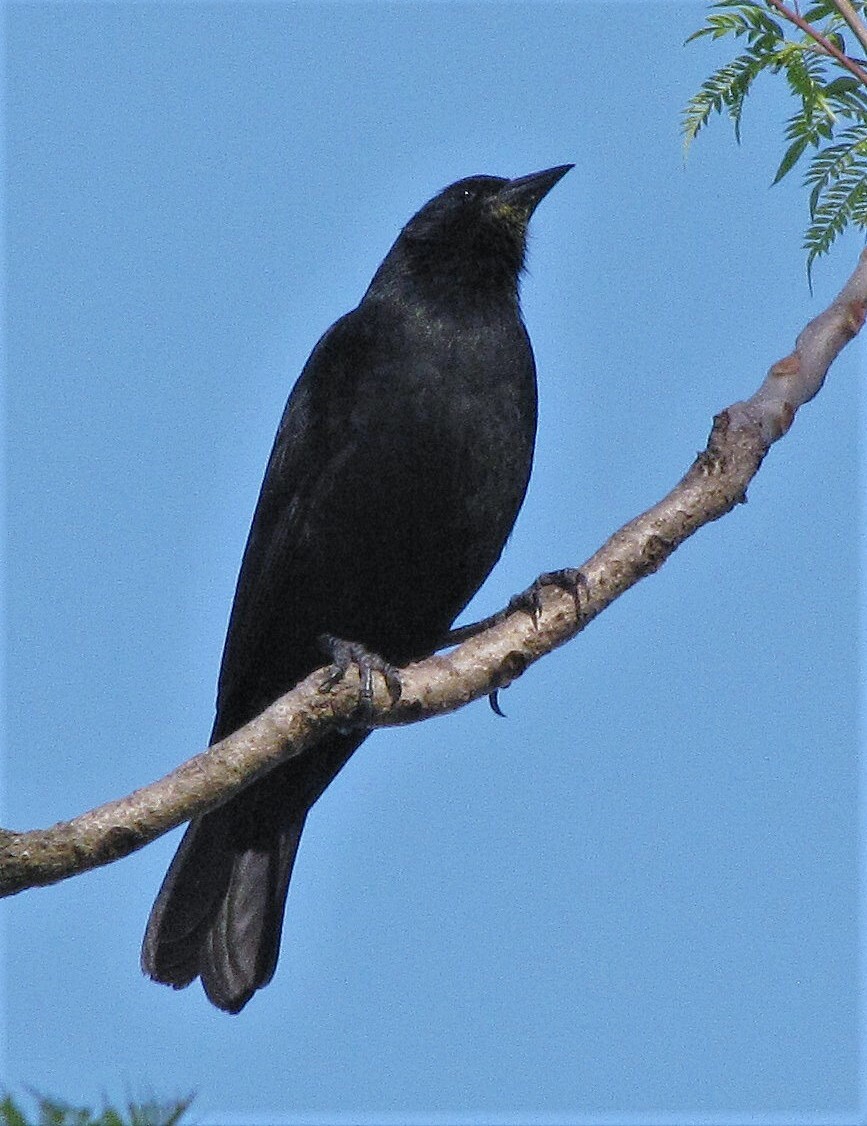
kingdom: Animalia
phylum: Chordata
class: Aves
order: Passeriformes
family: Icteridae
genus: Gnorimopsar
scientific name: Gnorimopsar chopi
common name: Chopi blackbird
